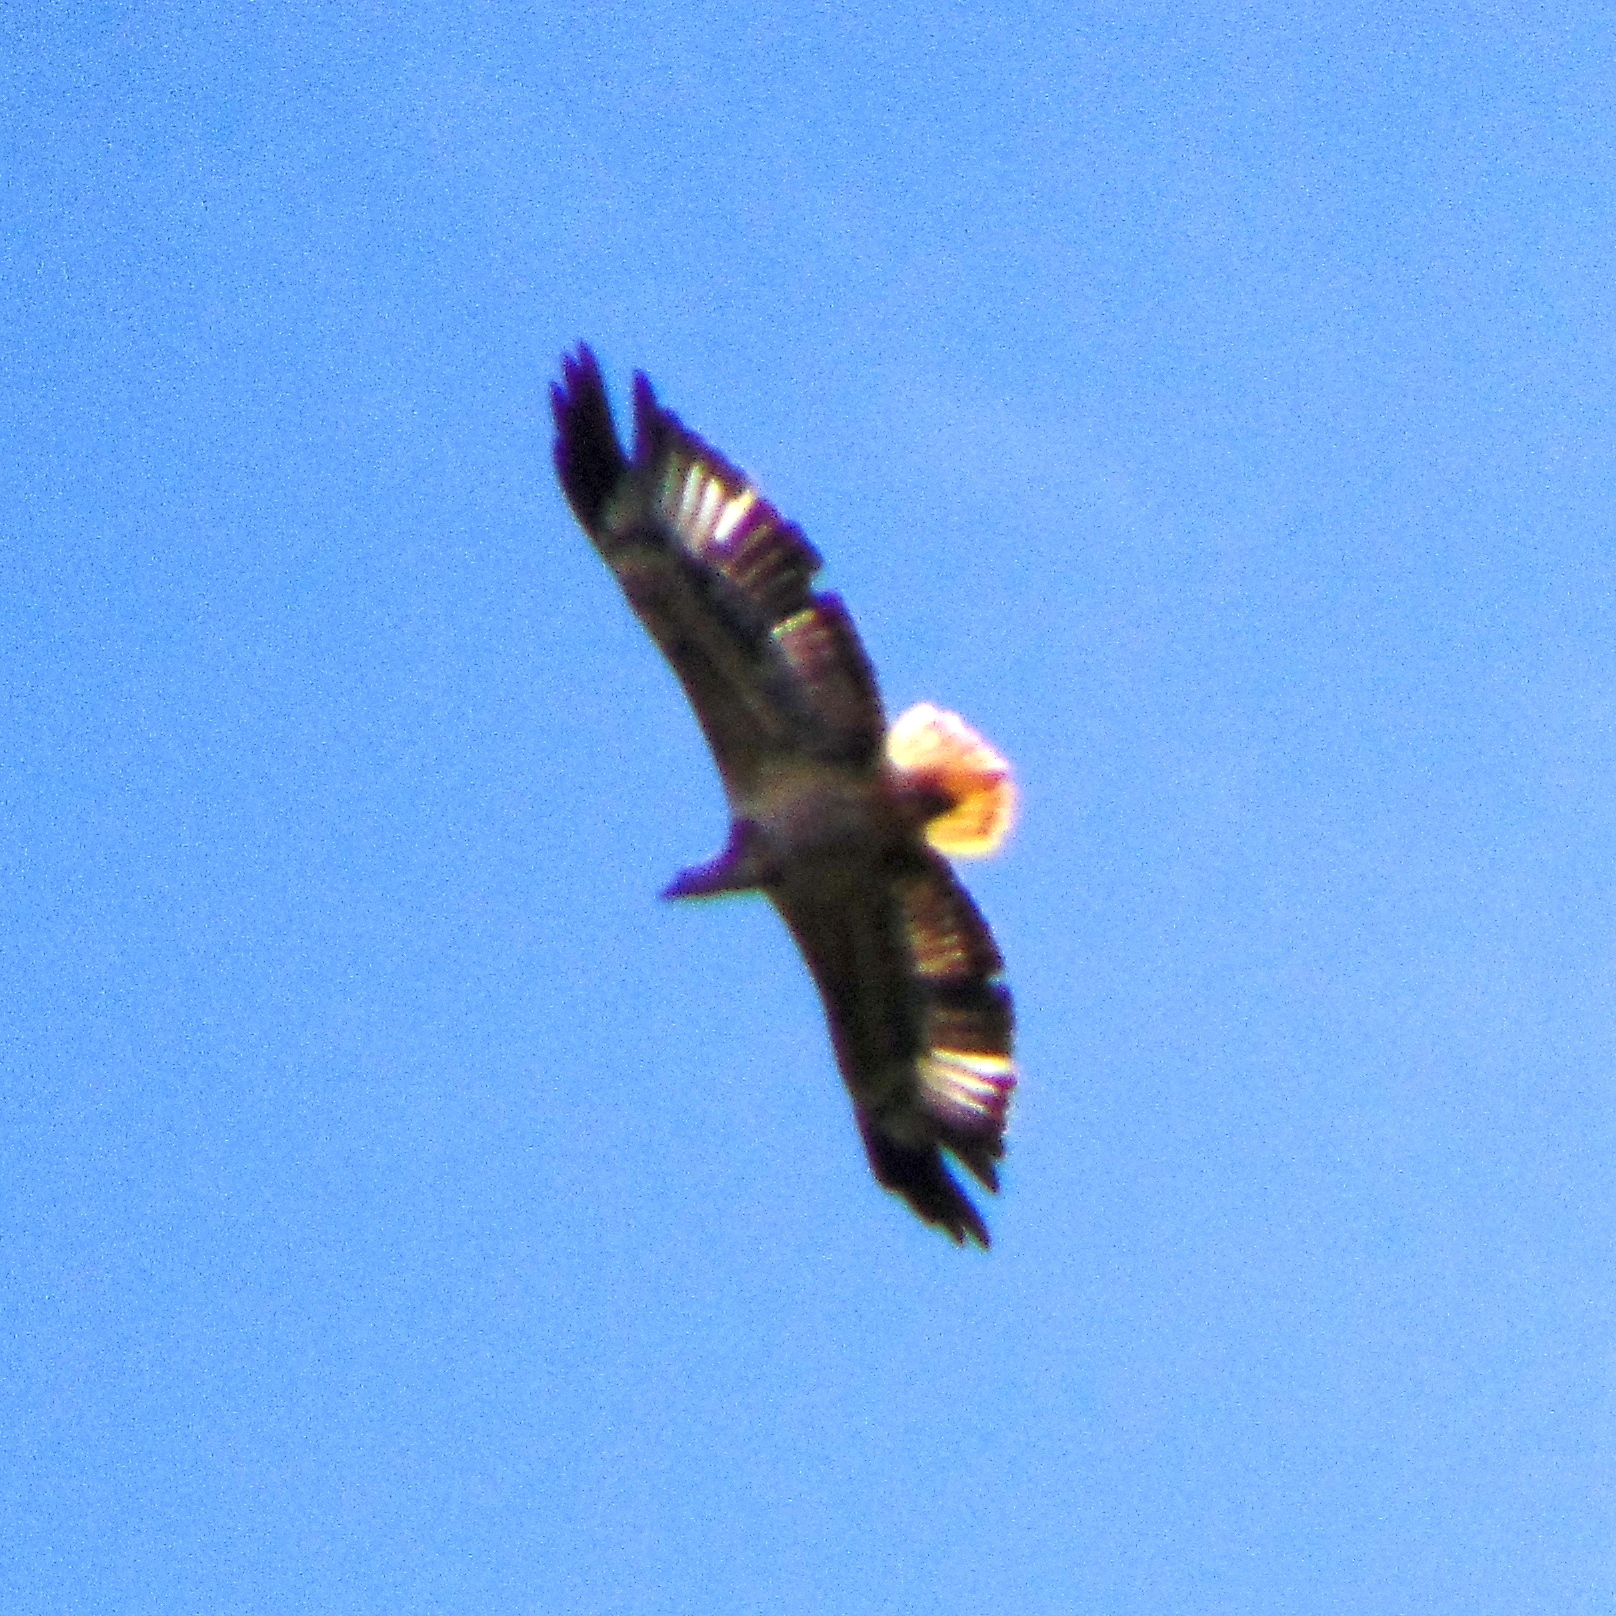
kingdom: Animalia
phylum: Chordata
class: Aves
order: Accipitriformes
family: Accipitridae
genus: Haliaeetus
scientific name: Haliaeetus leucogaster
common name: White-bellied sea eagle
